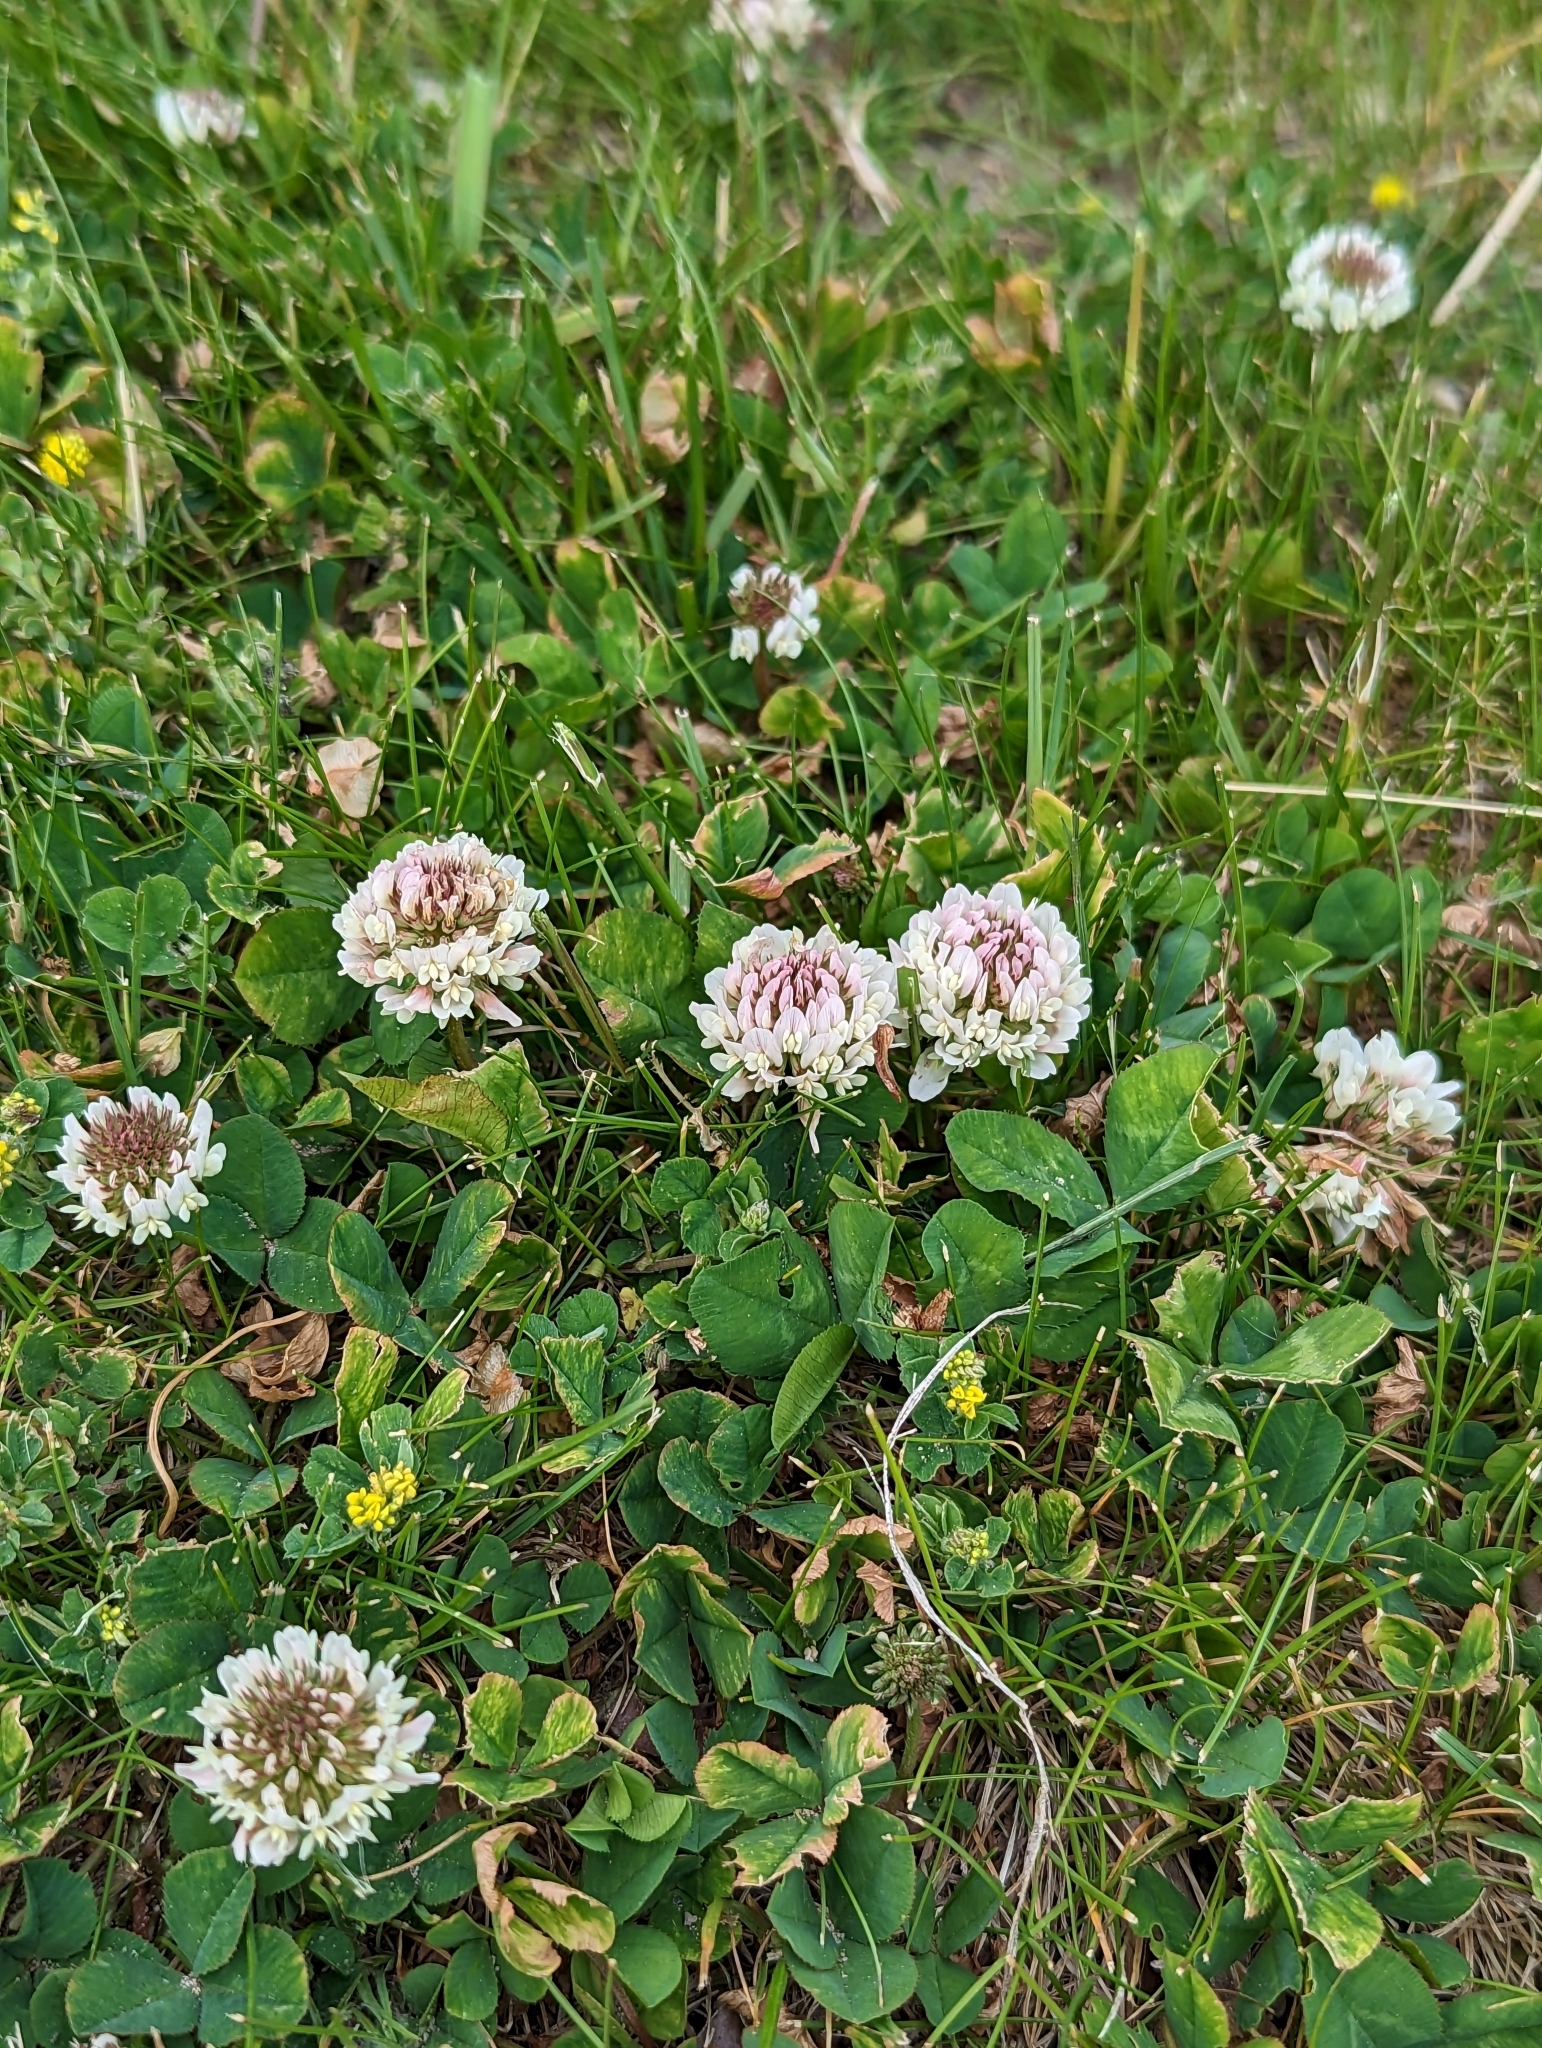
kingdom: Plantae
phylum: Tracheophyta
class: Magnoliopsida
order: Fabales
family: Fabaceae
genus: Trifolium
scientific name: Trifolium repens
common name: White clover
